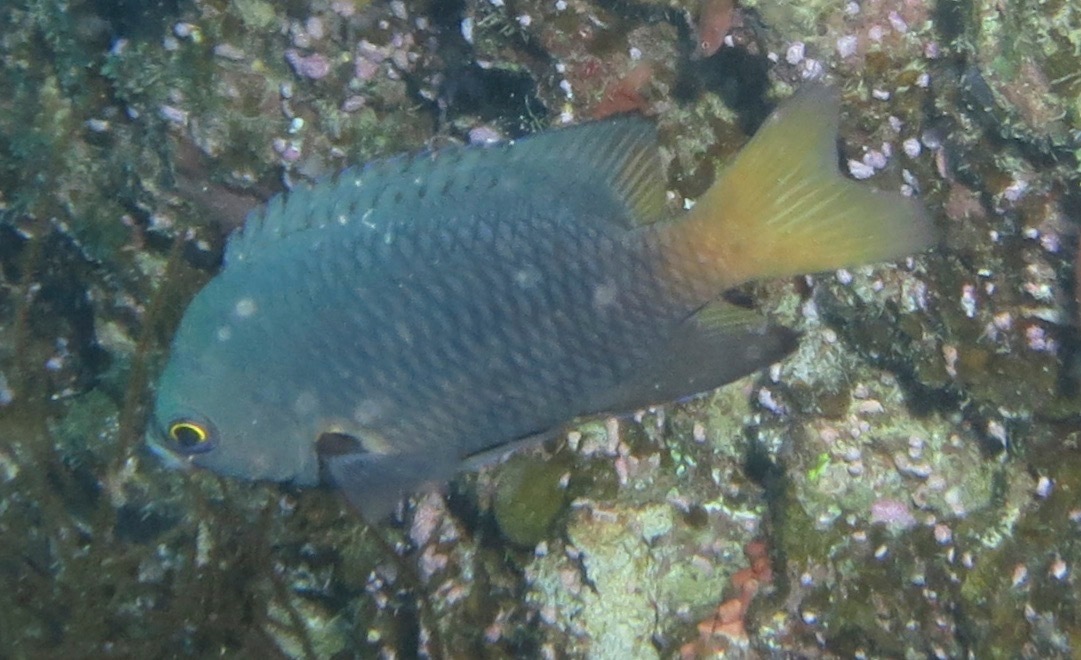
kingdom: Animalia
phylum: Chordata
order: Perciformes
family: Pomacentridae
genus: Pomacentrus
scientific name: Pomacentrus flavioculus
